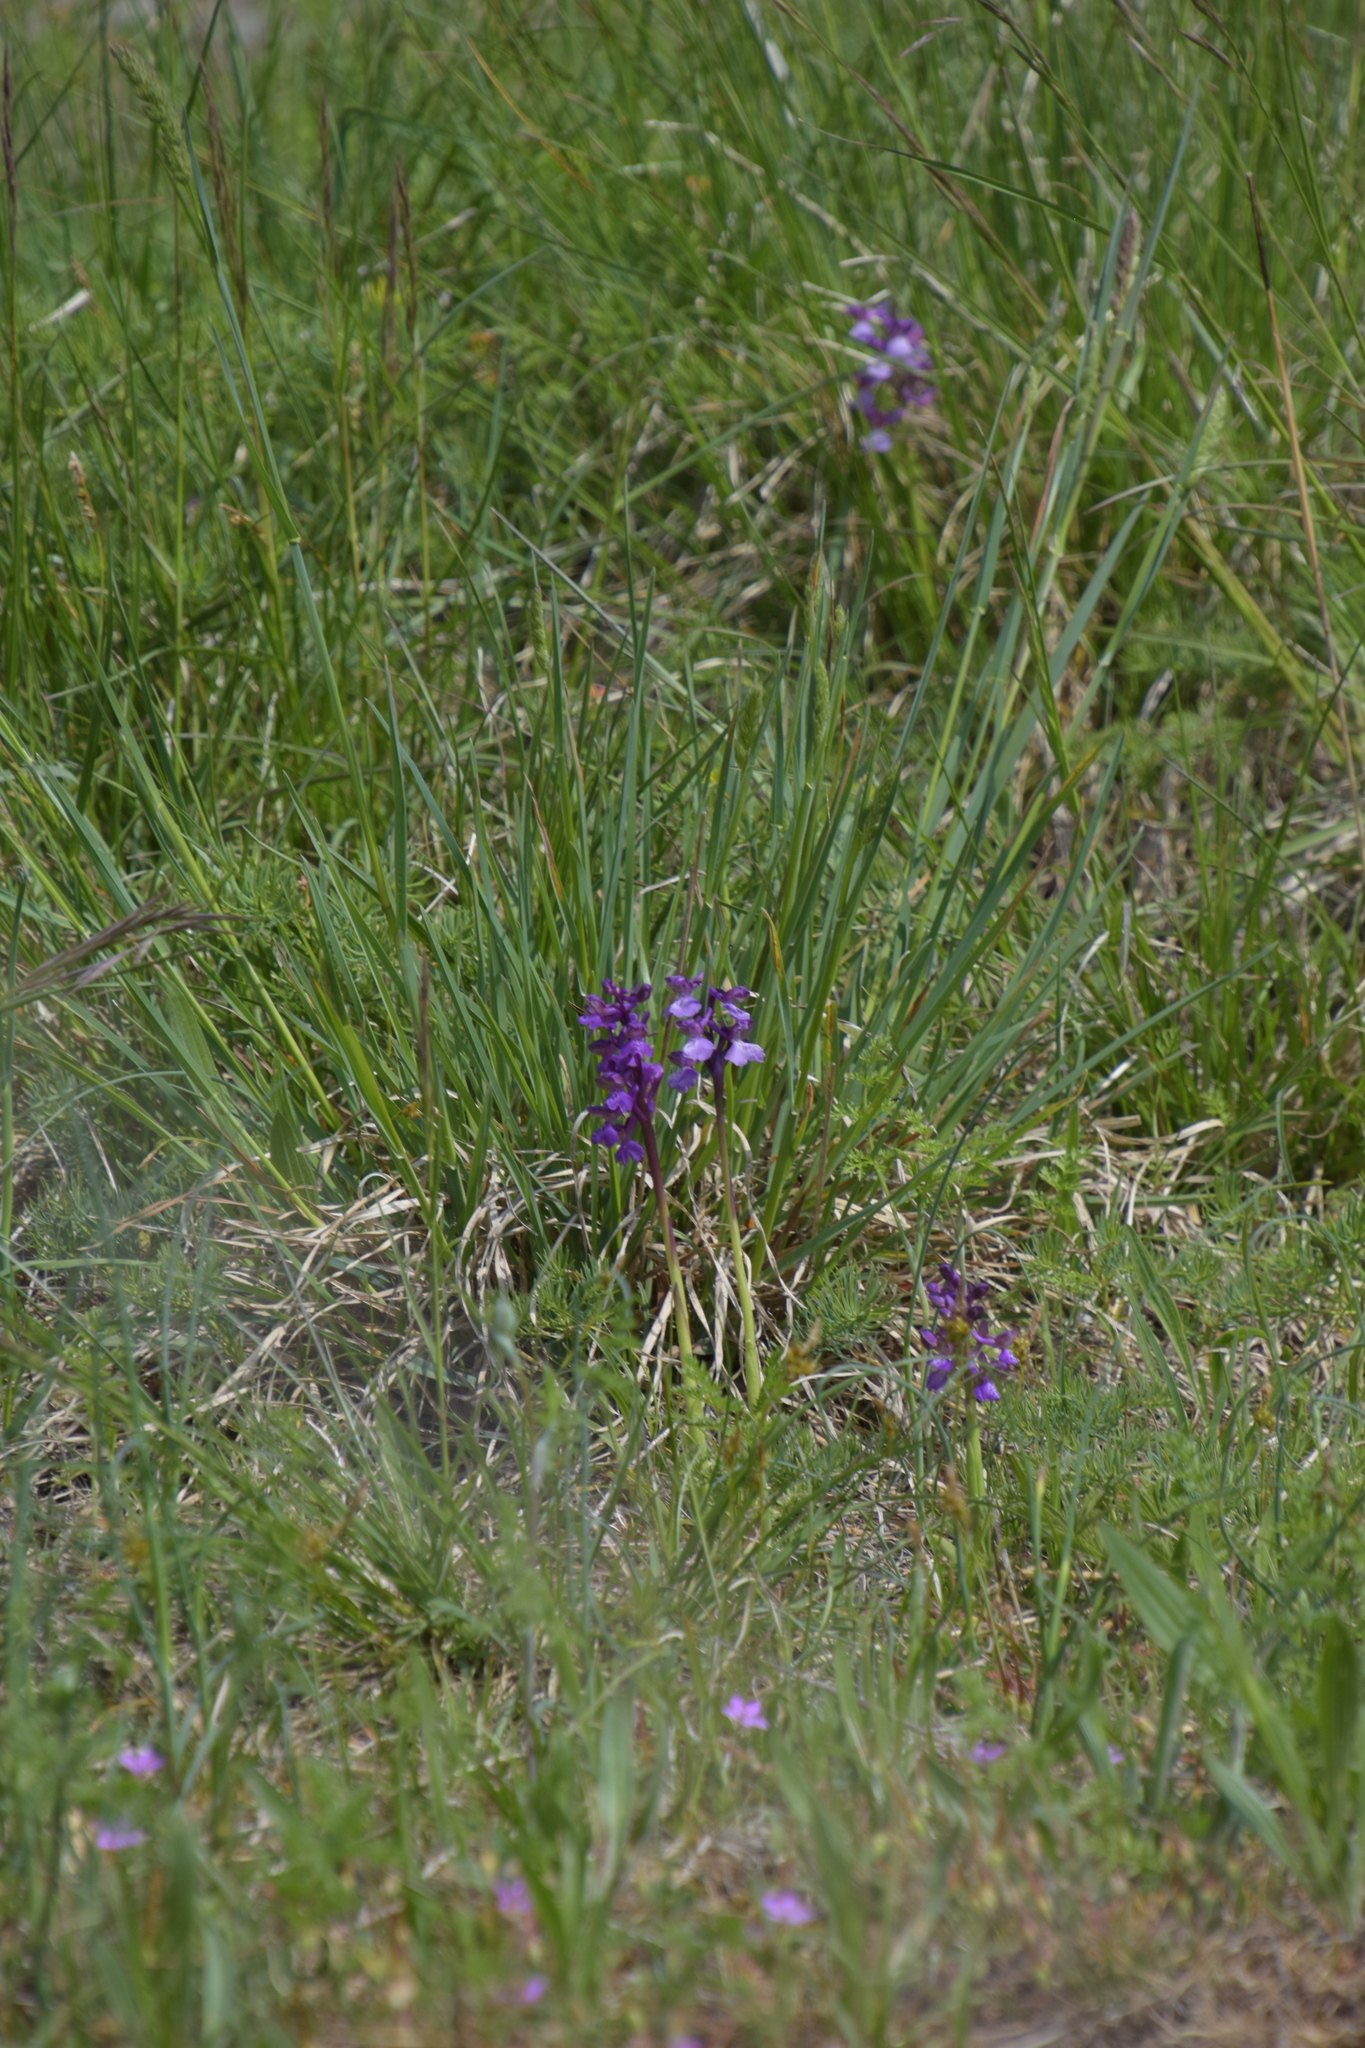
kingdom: Plantae
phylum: Tracheophyta
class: Liliopsida
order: Asparagales
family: Orchidaceae
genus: Anacamptis
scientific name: Anacamptis morio
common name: Green-winged orchid
